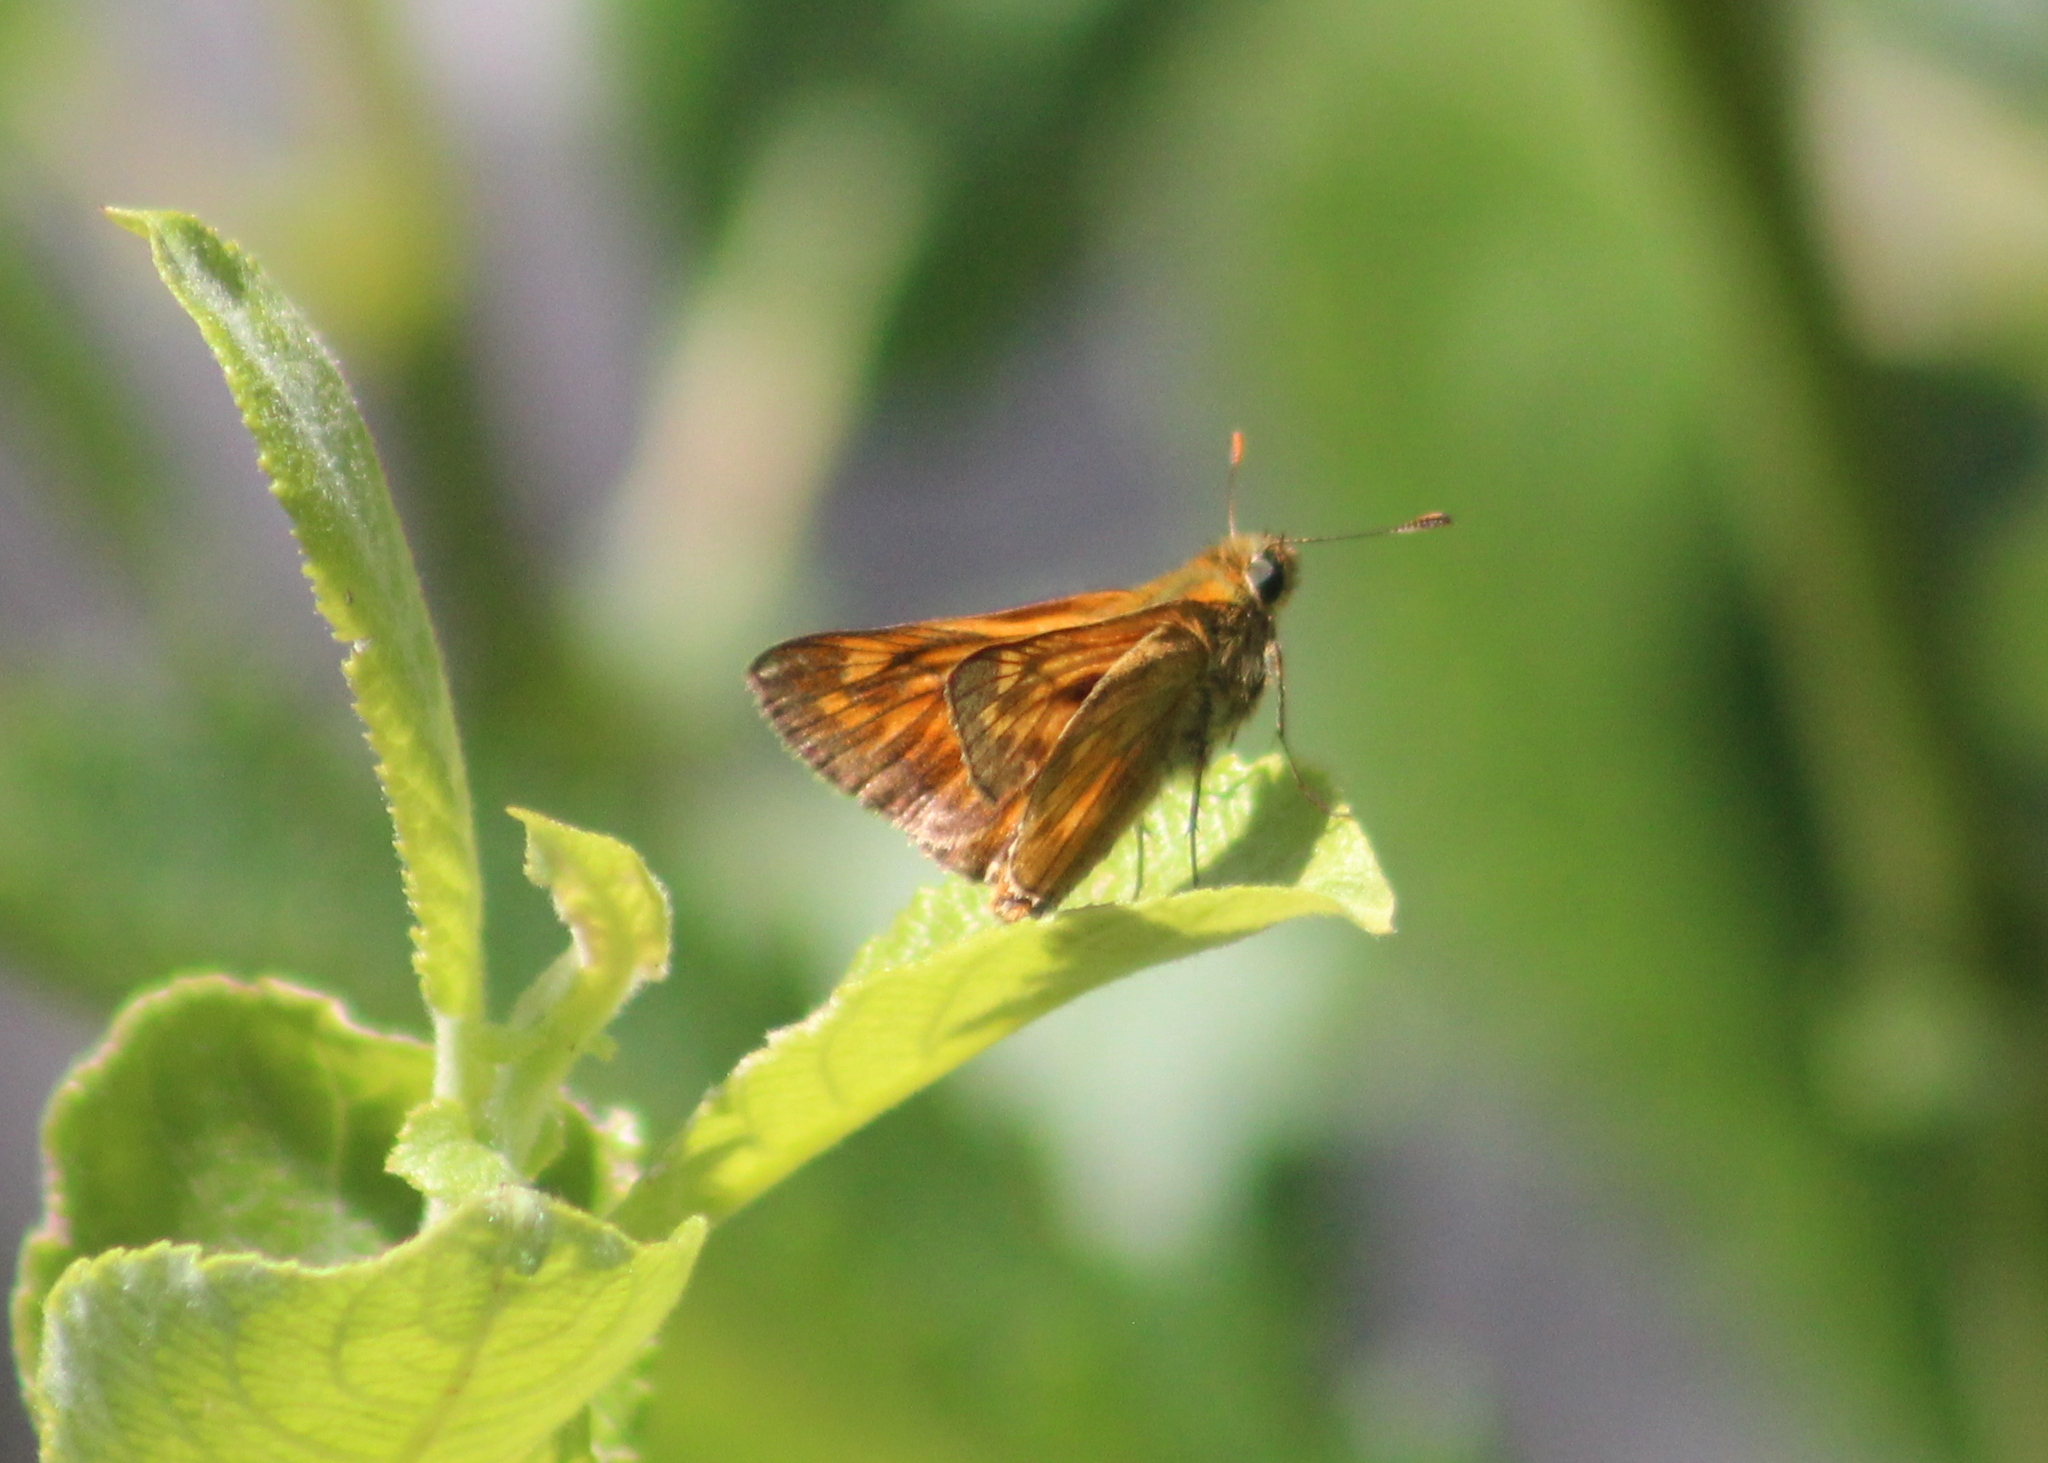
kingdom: Animalia
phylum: Arthropoda
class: Insecta
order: Lepidoptera
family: Hesperiidae
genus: Ochlodes
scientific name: Ochlodes venata
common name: Large skipper
